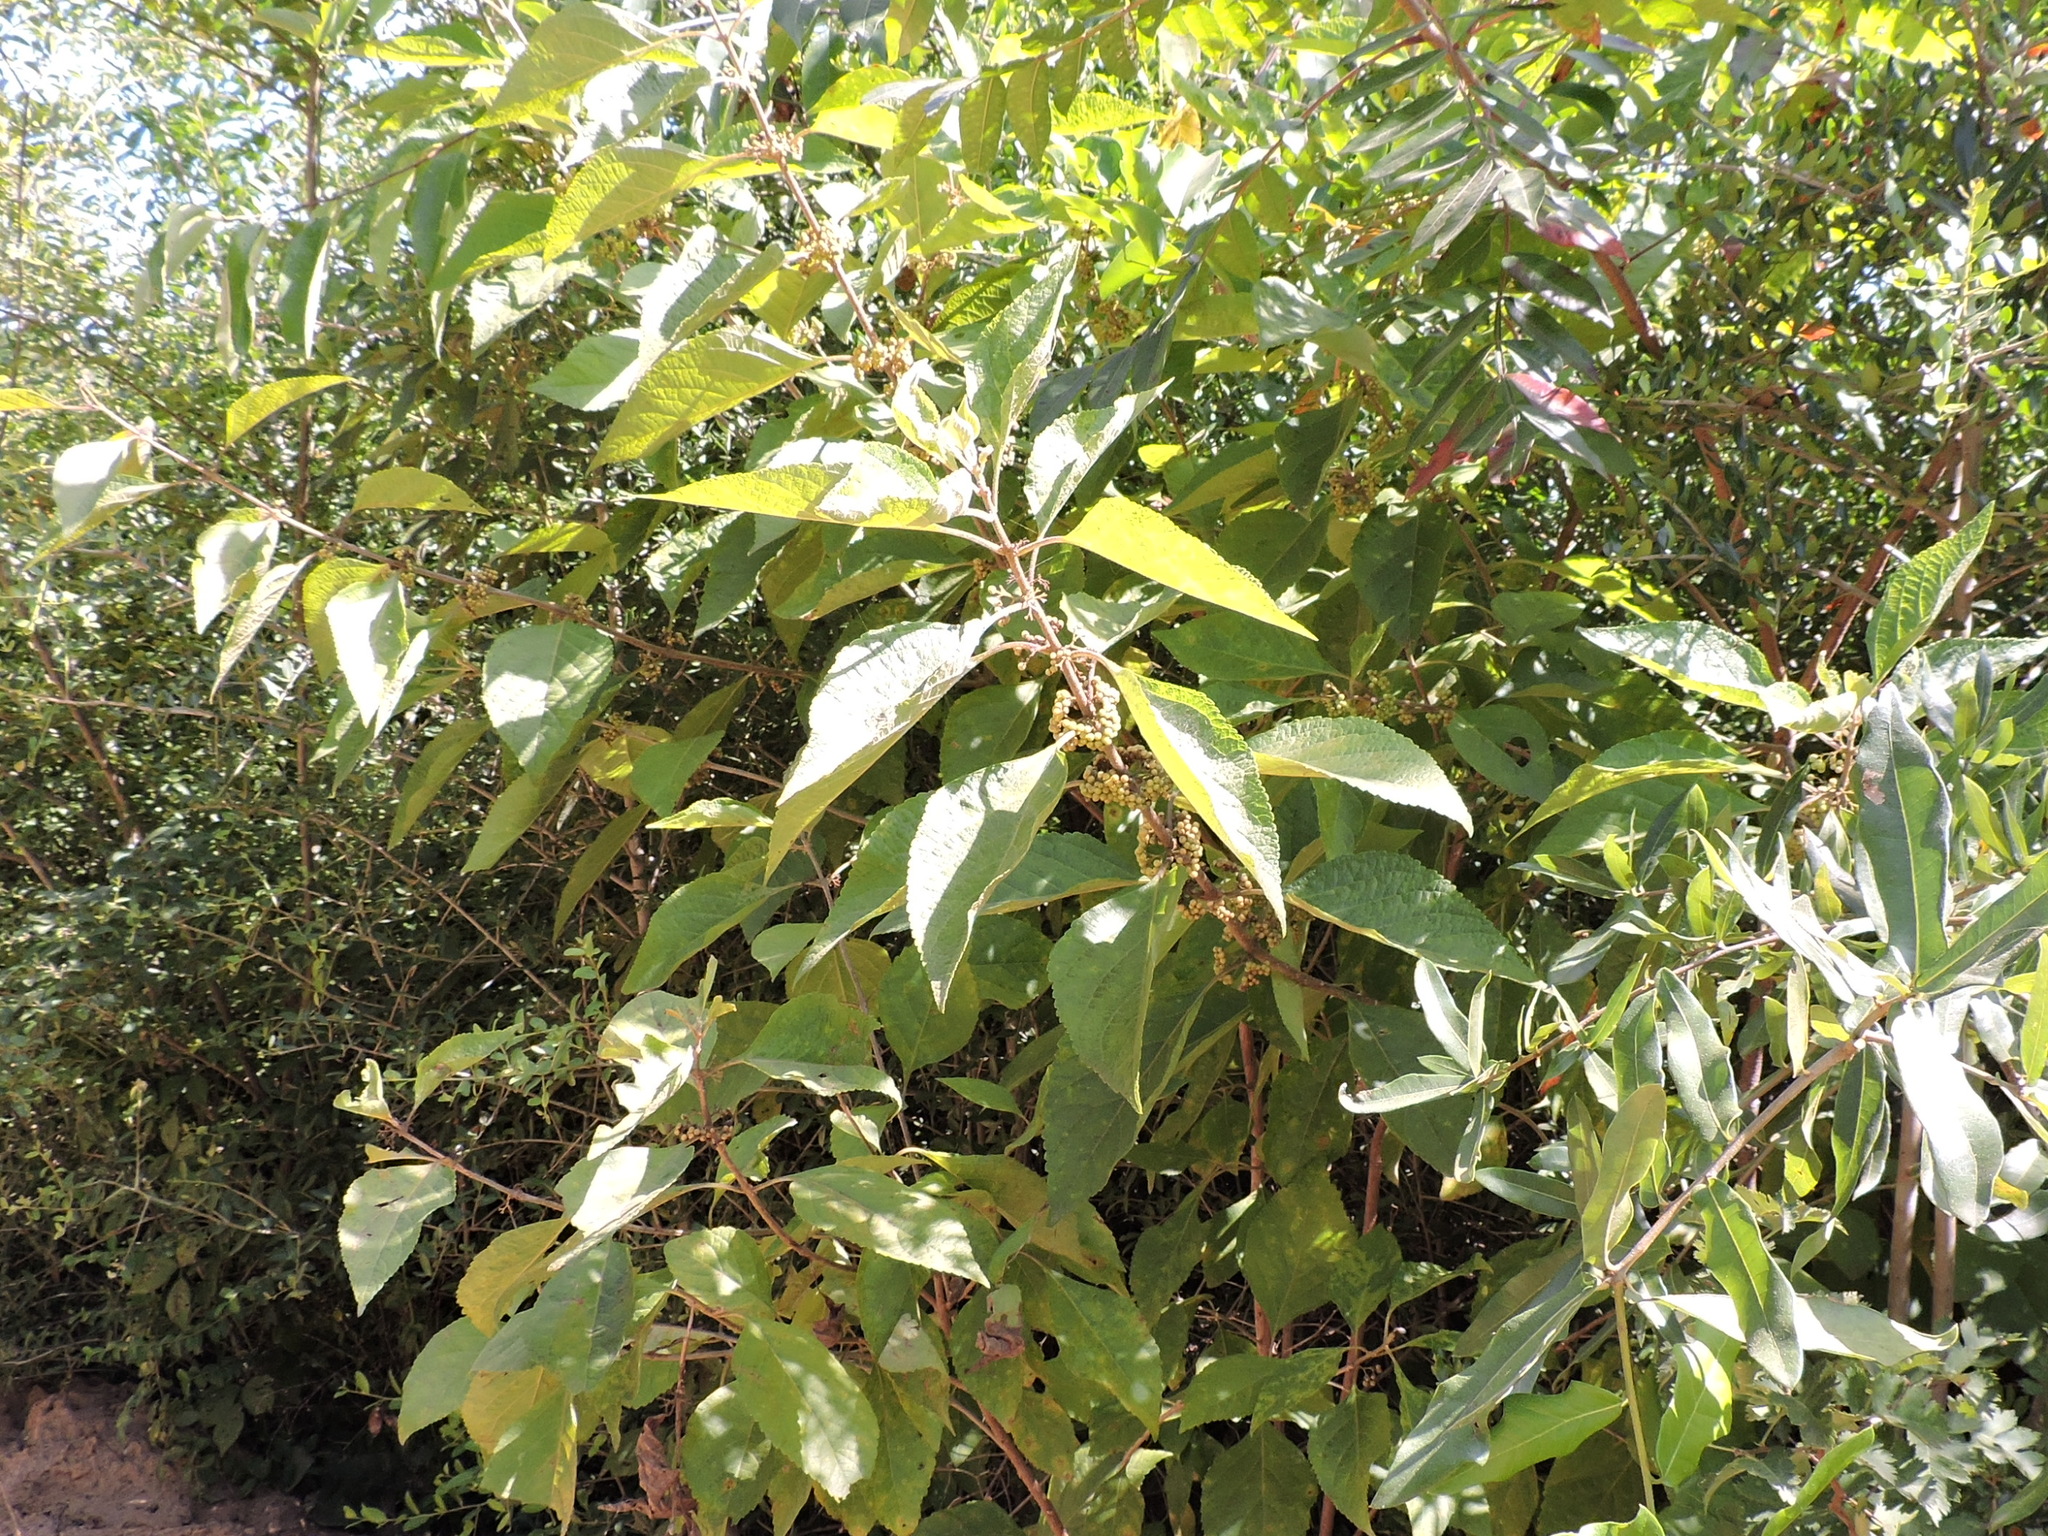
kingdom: Plantae
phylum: Tracheophyta
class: Magnoliopsida
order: Lamiales
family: Lamiaceae
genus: Callicarpa
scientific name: Callicarpa americana
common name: American beautyberry
